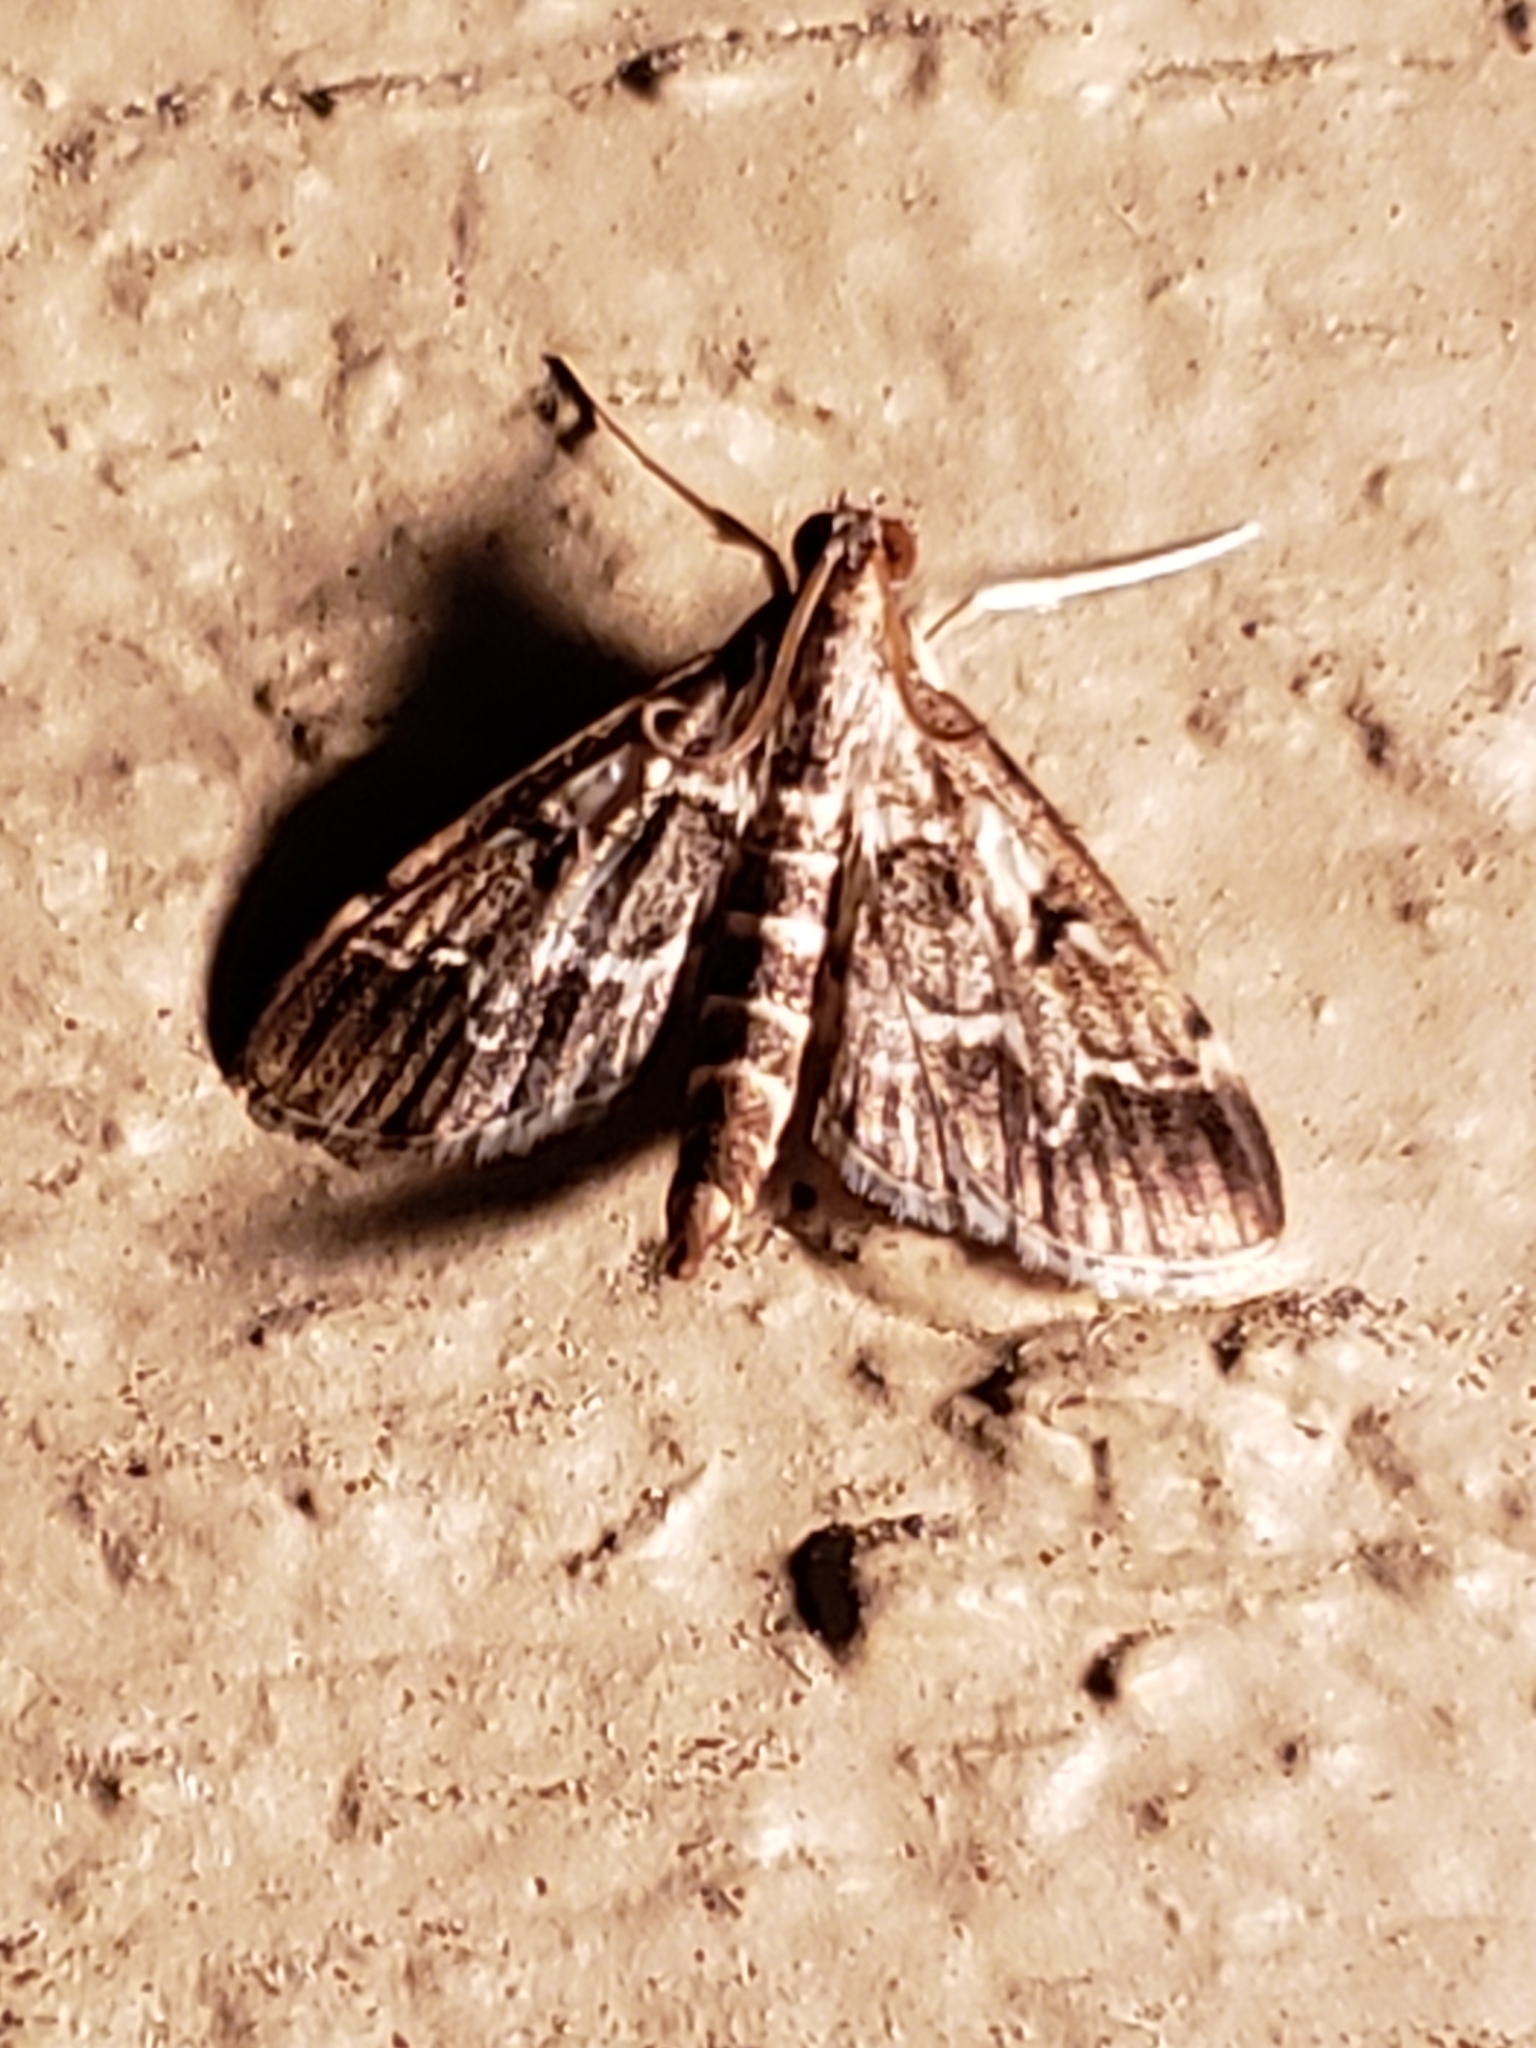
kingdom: Animalia
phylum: Arthropoda
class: Insecta
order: Lepidoptera
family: Crambidae
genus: Duponchelia
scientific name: Duponchelia fovealis
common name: Crambid moth
